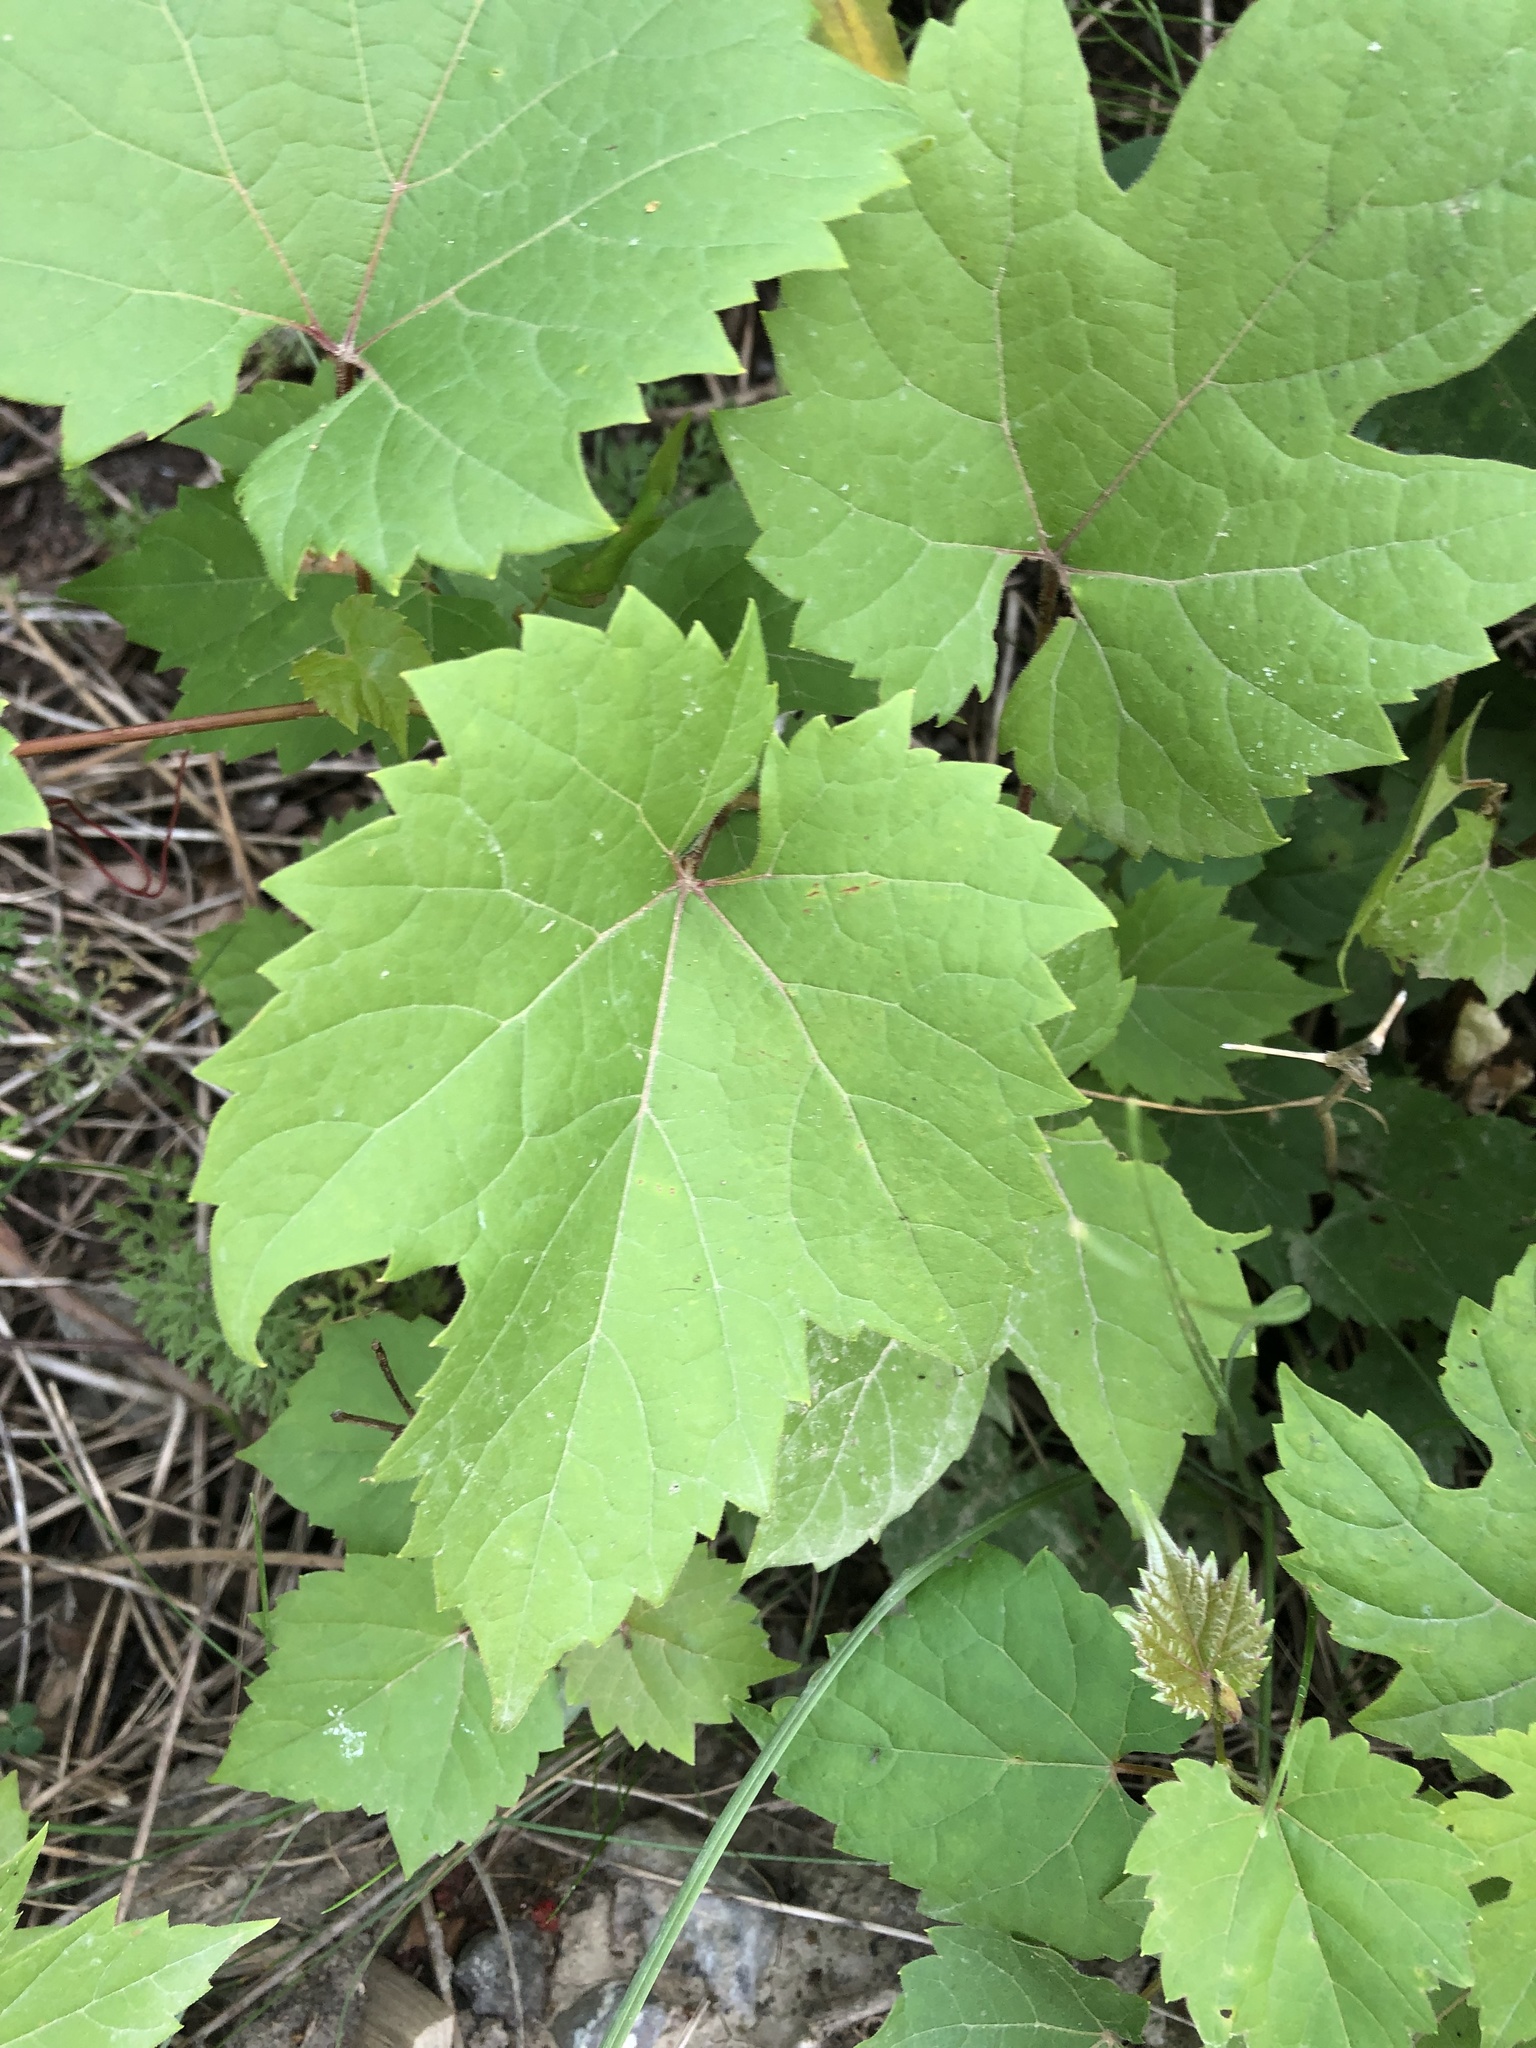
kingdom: Plantae
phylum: Tracheophyta
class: Magnoliopsida
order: Vitales
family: Vitaceae
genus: Vitis
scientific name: Vitis riparia
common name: Frost grape
